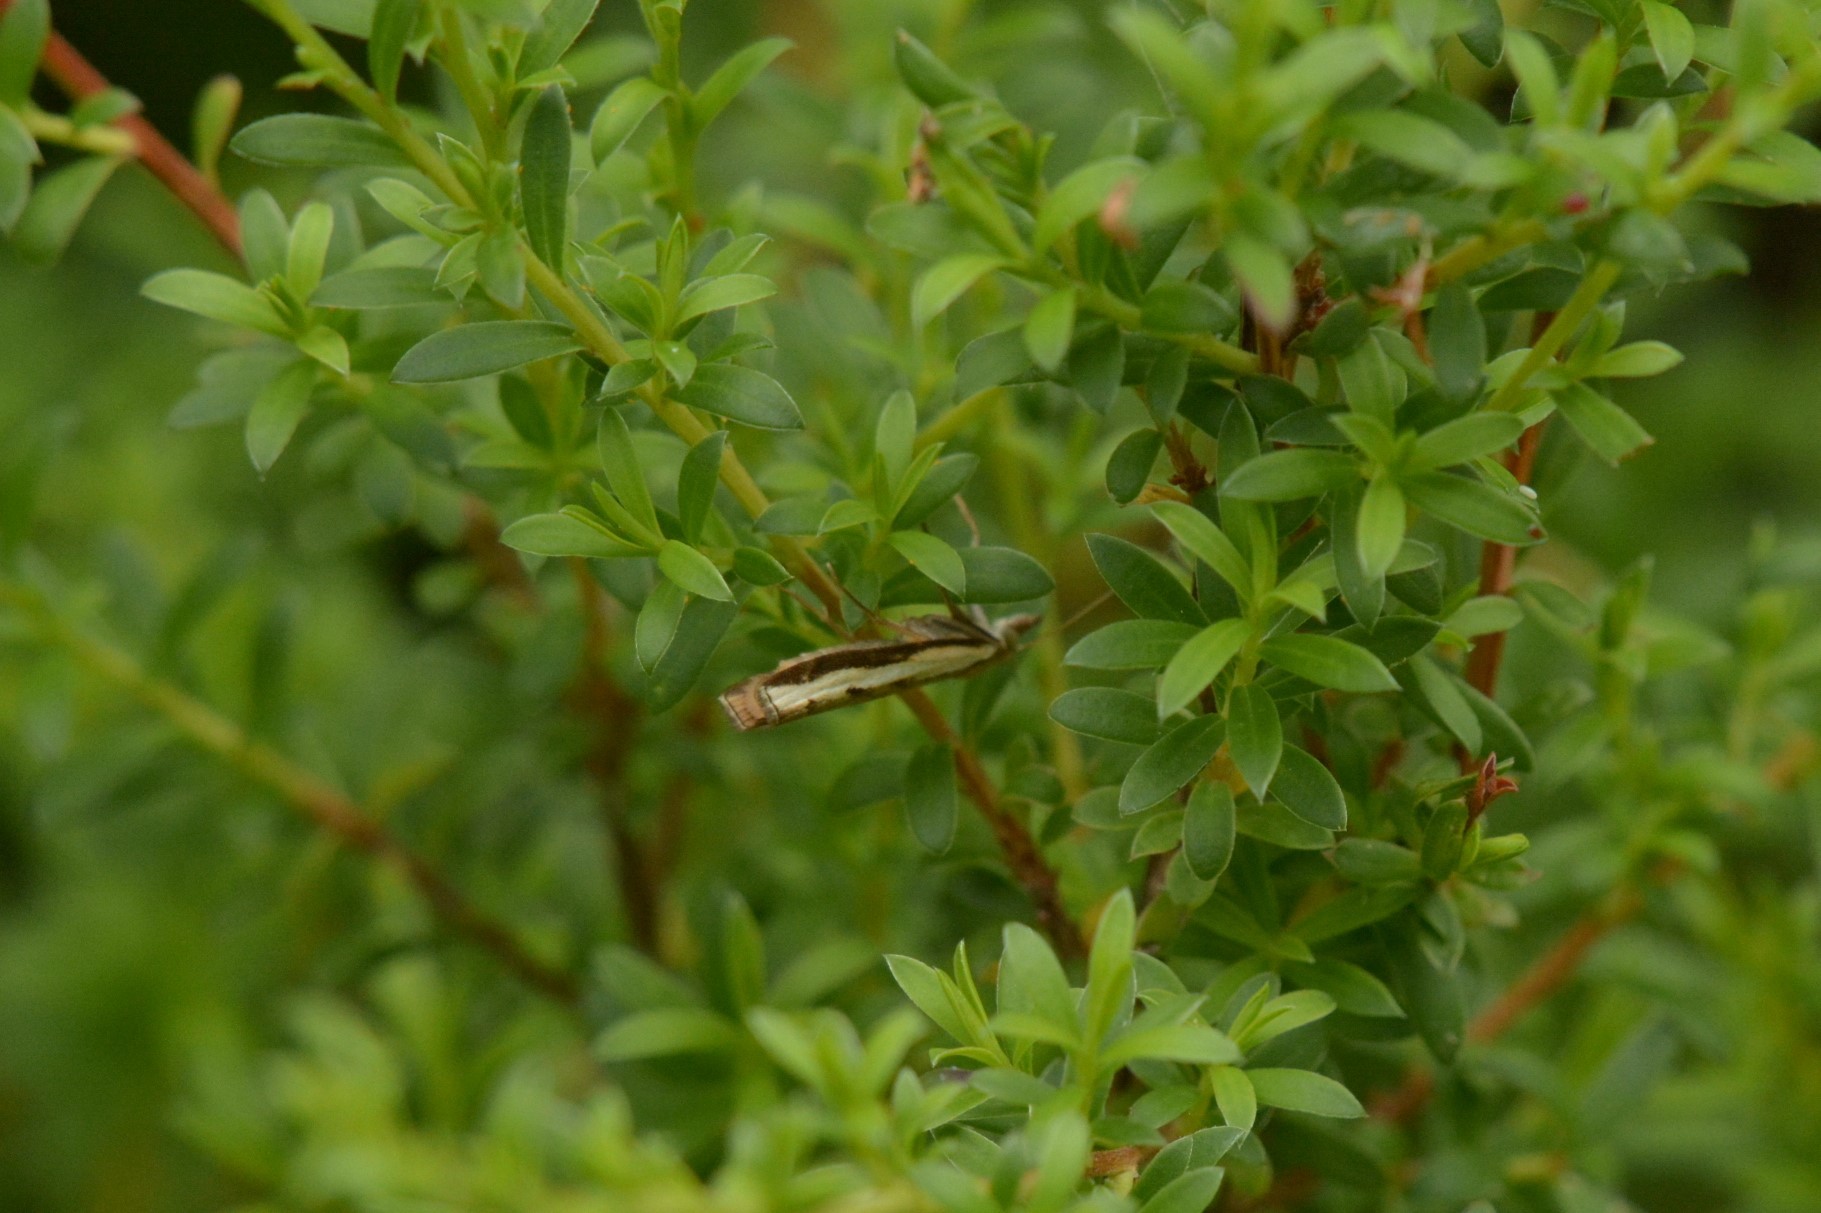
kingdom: Animalia
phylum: Arthropoda
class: Insecta
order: Lepidoptera
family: Crambidae
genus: Orocrambus
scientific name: Orocrambus flexuosellus
